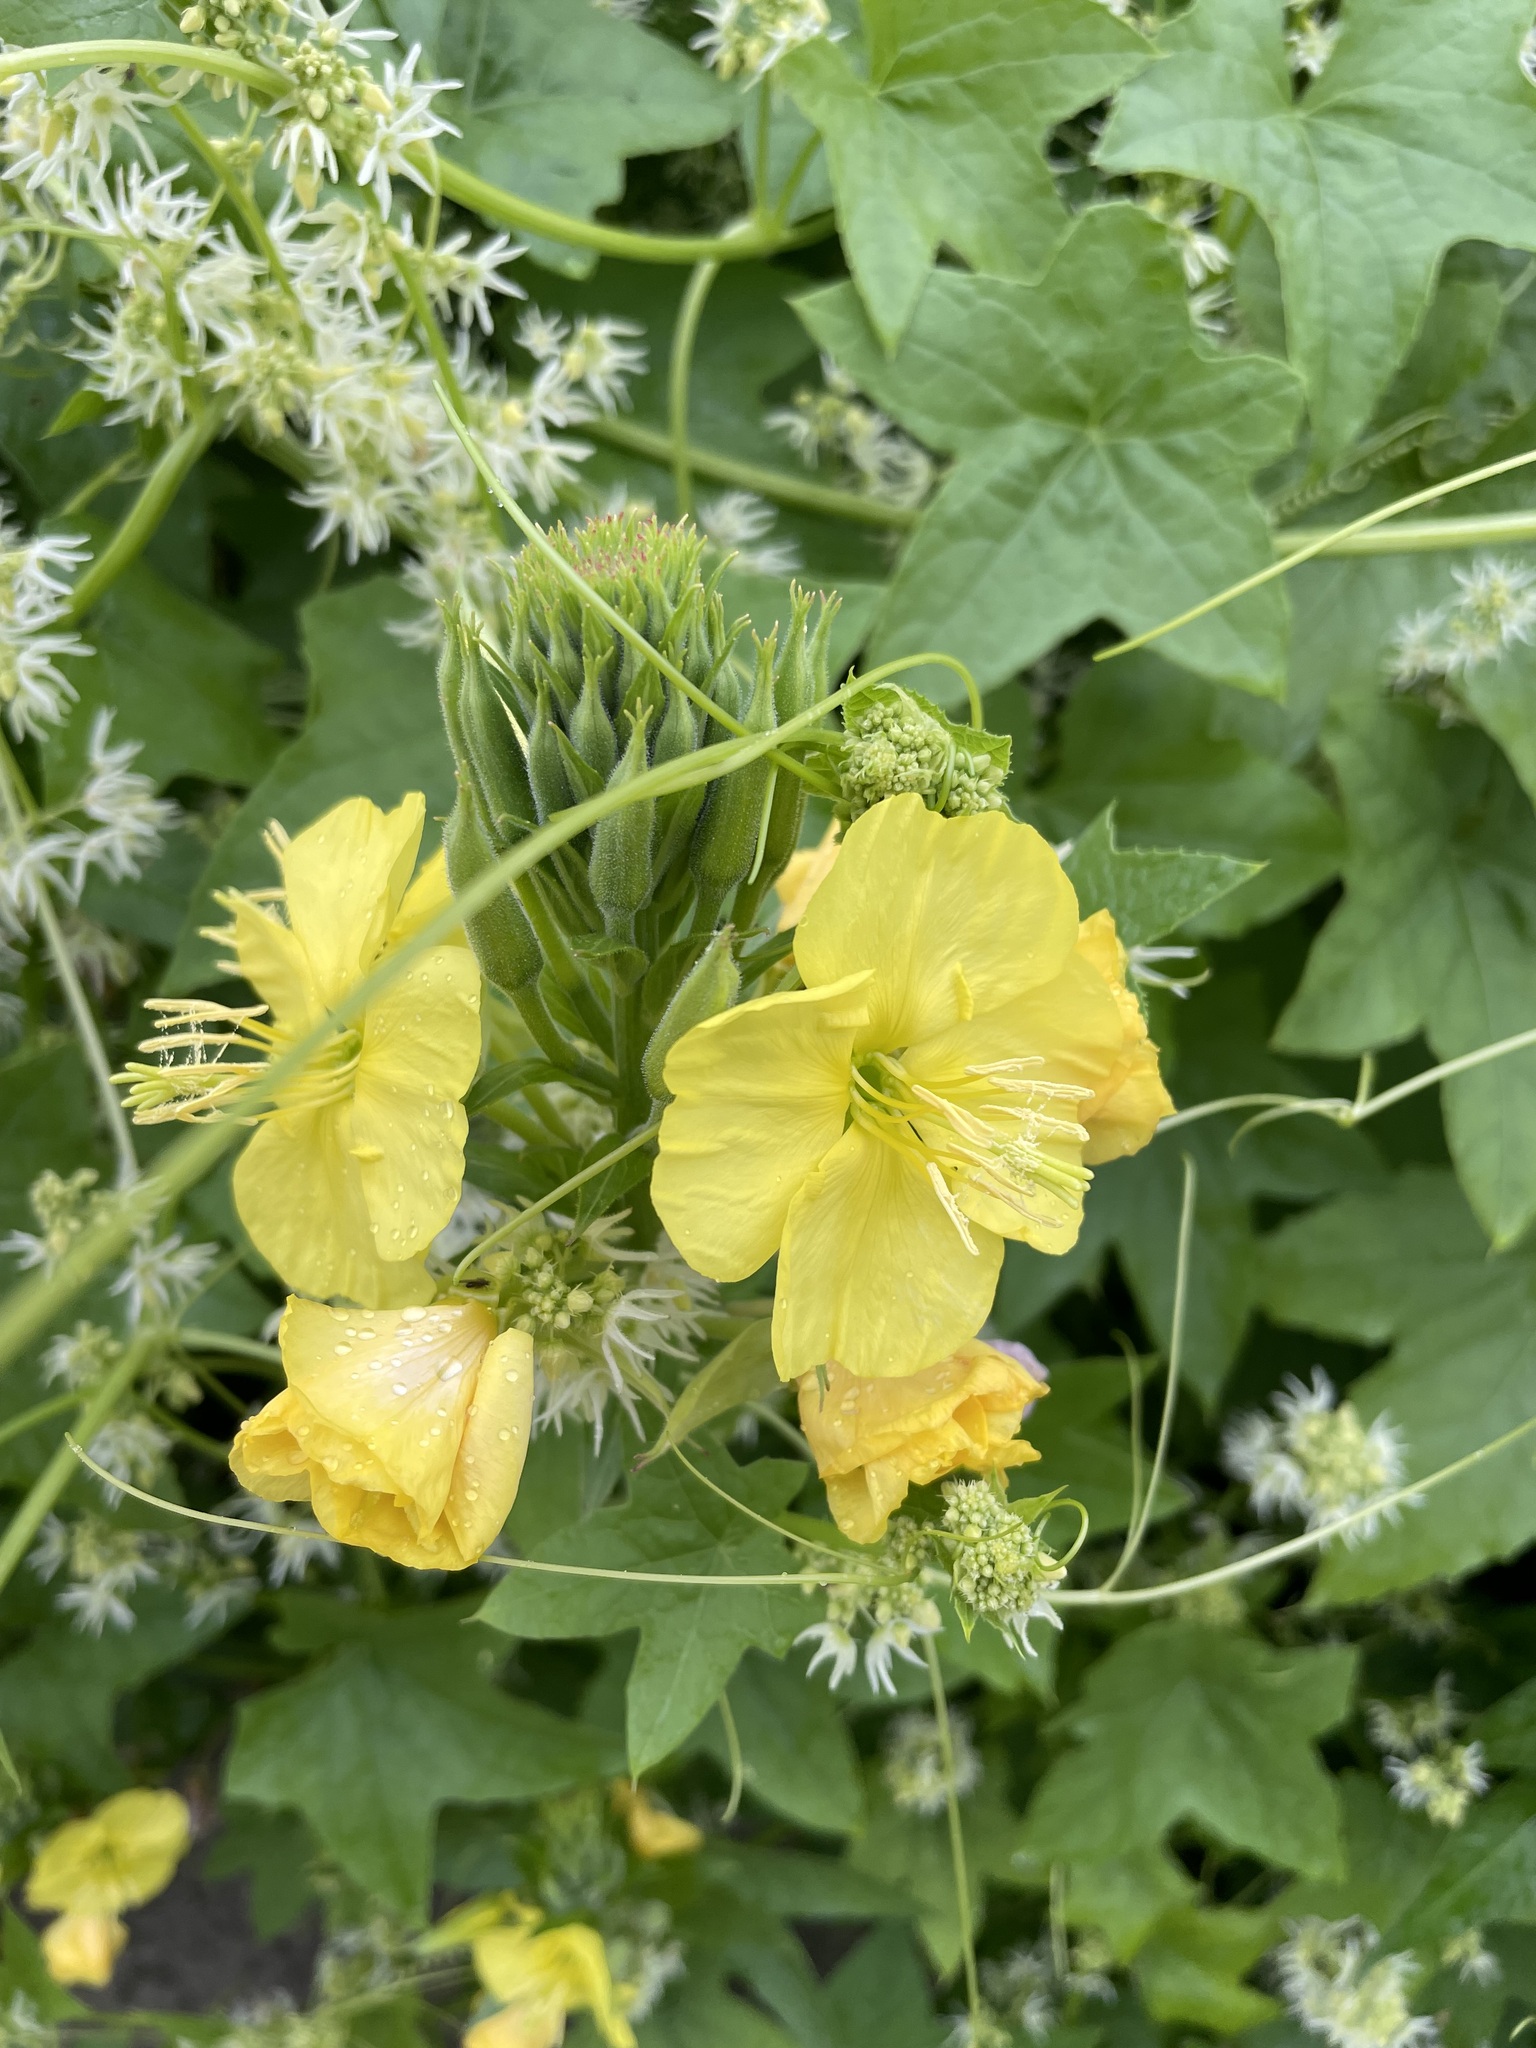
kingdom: Plantae
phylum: Tracheophyta
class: Magnoliopsida
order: Myrtales
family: Onagraceae
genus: Oenothera
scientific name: Oenothera biennis
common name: Common evening-primrose
